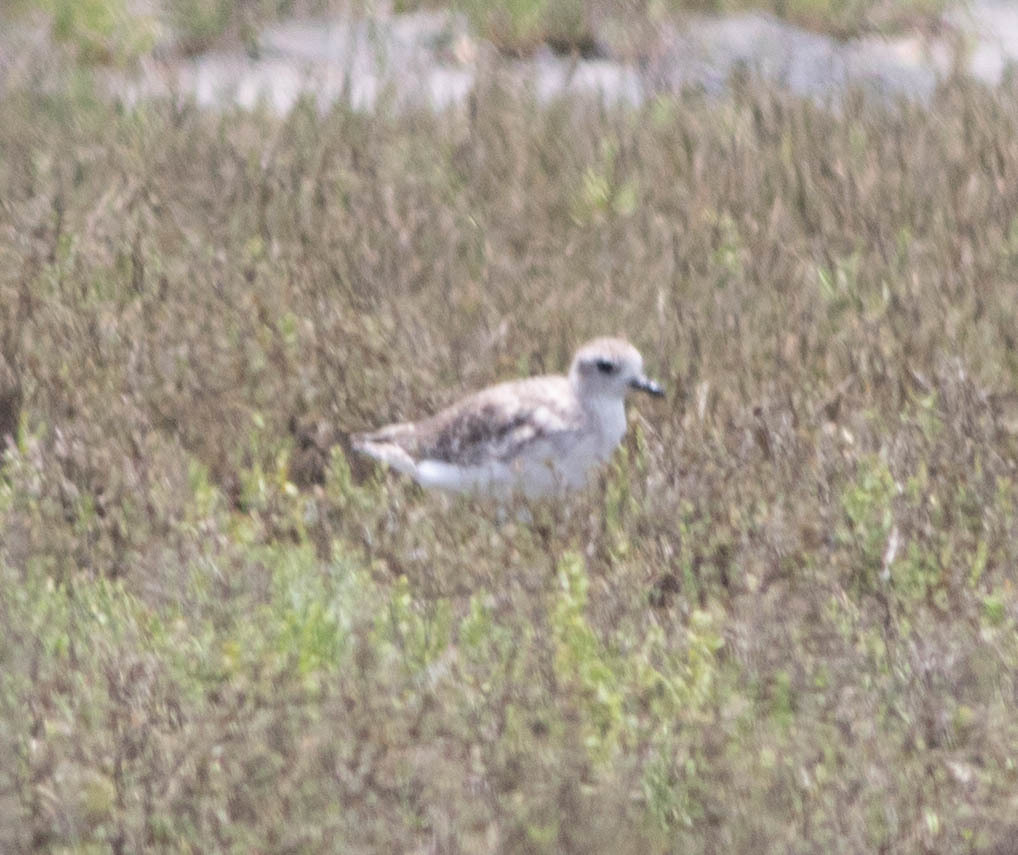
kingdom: Animalia
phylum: Chordata
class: Aves
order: Charadriiformes
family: Charadriidae
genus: Pluvialis
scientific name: Pluvialis squatarola
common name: Grey plover
